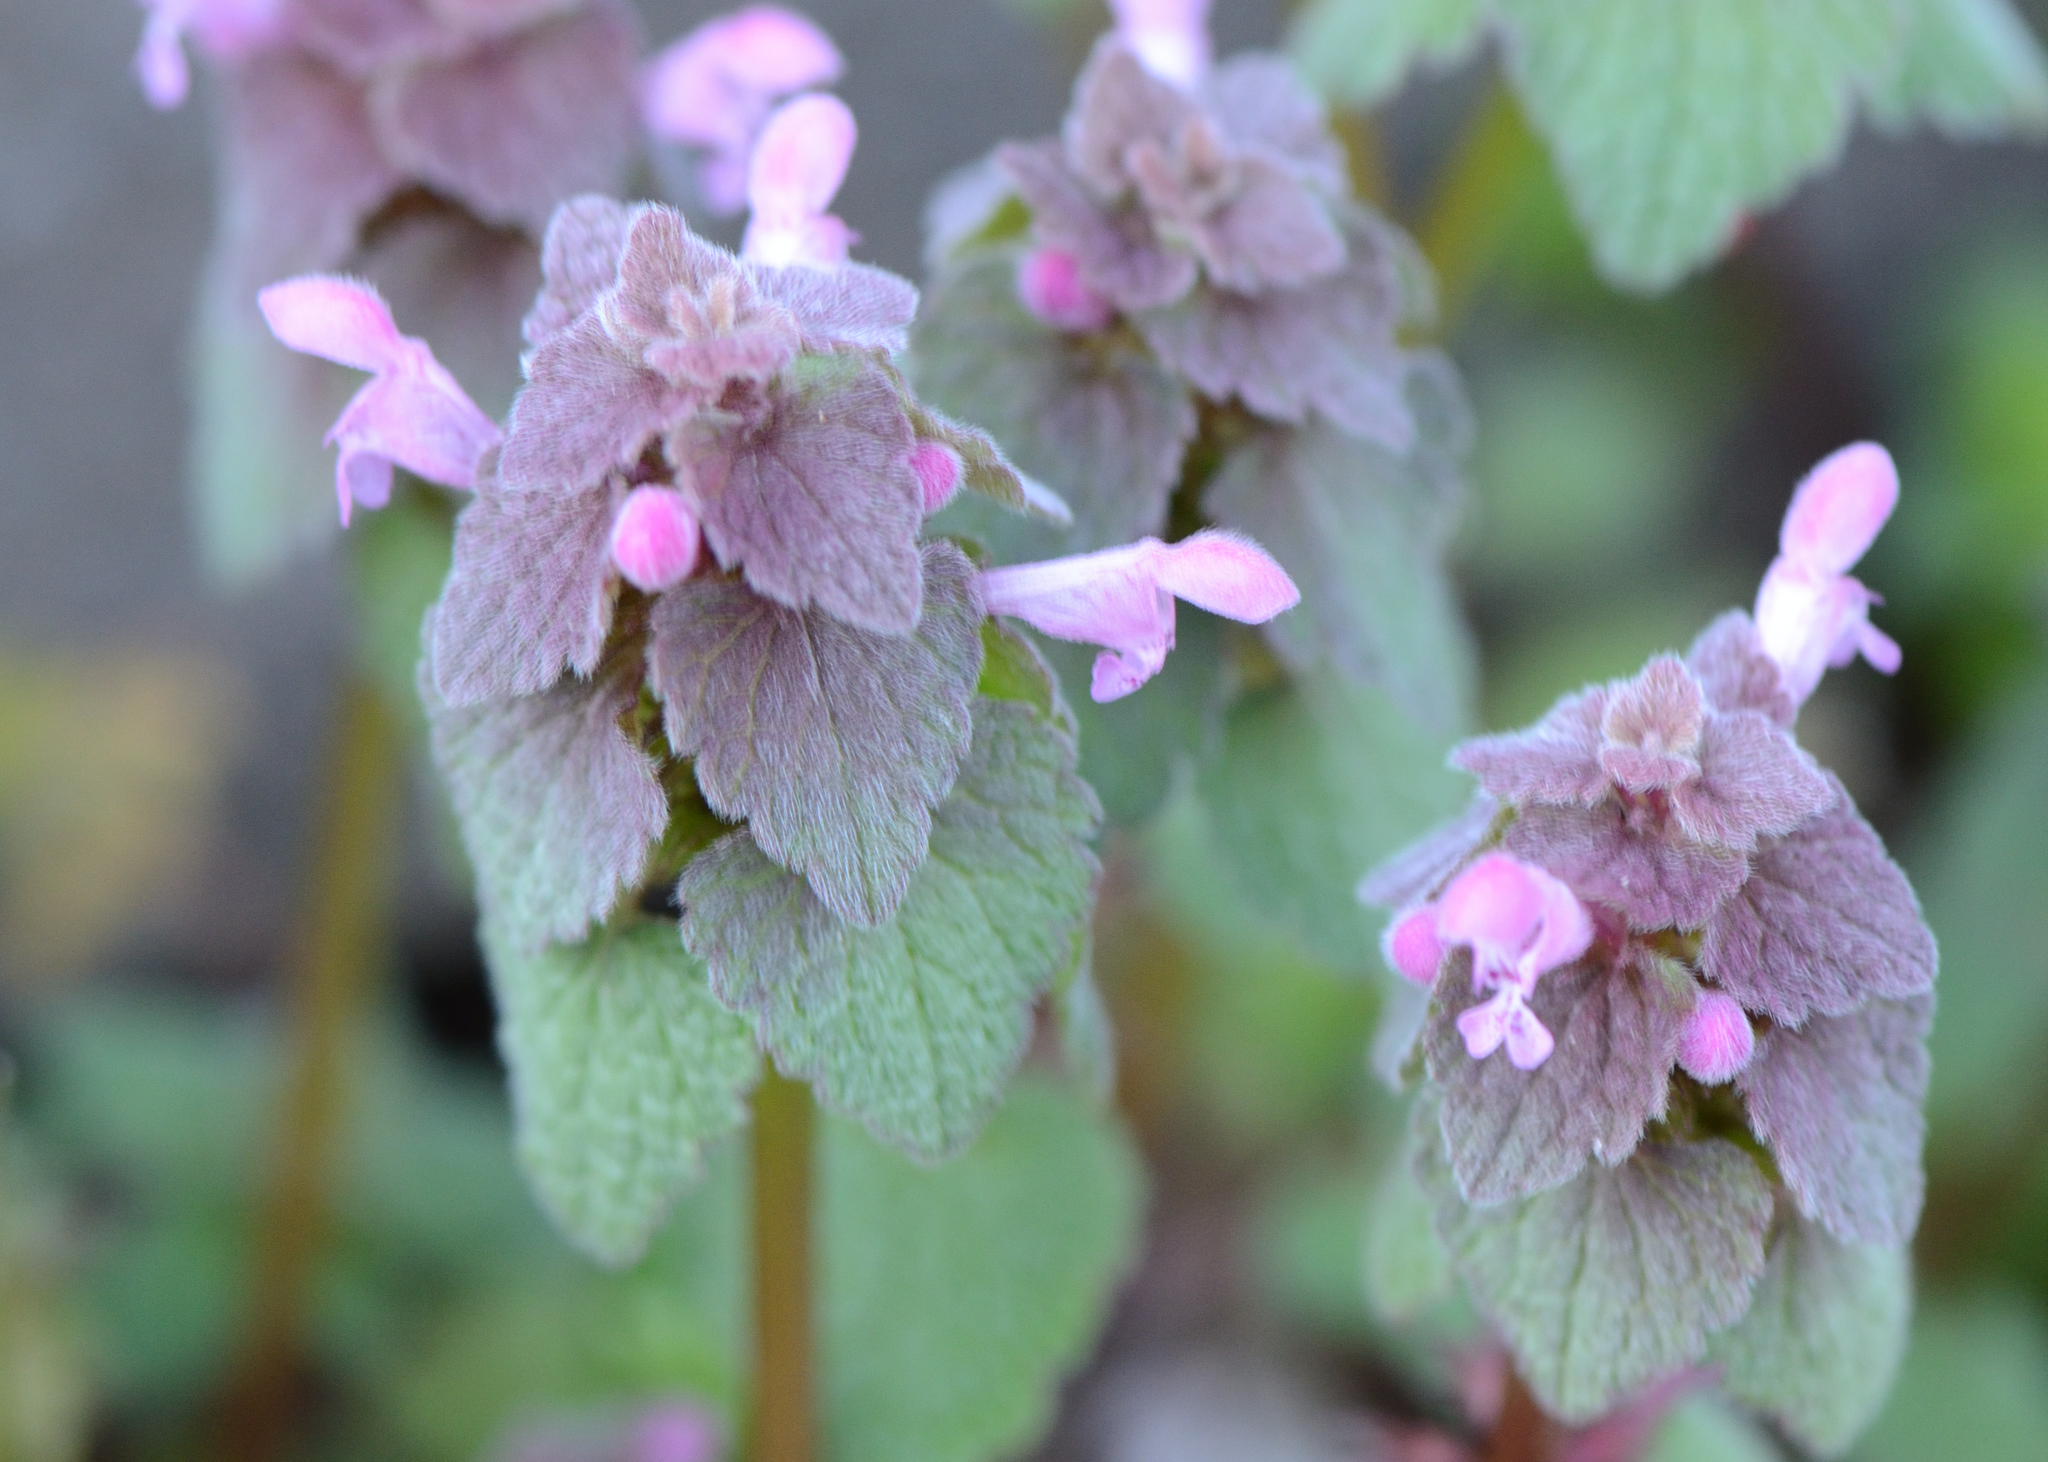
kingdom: Plantae
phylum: Tracheophyta
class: Magnoliopsida
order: Lamiales
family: Lamiaceae
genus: Lamium
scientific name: Lamium purpureum
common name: Red dead-nettle
